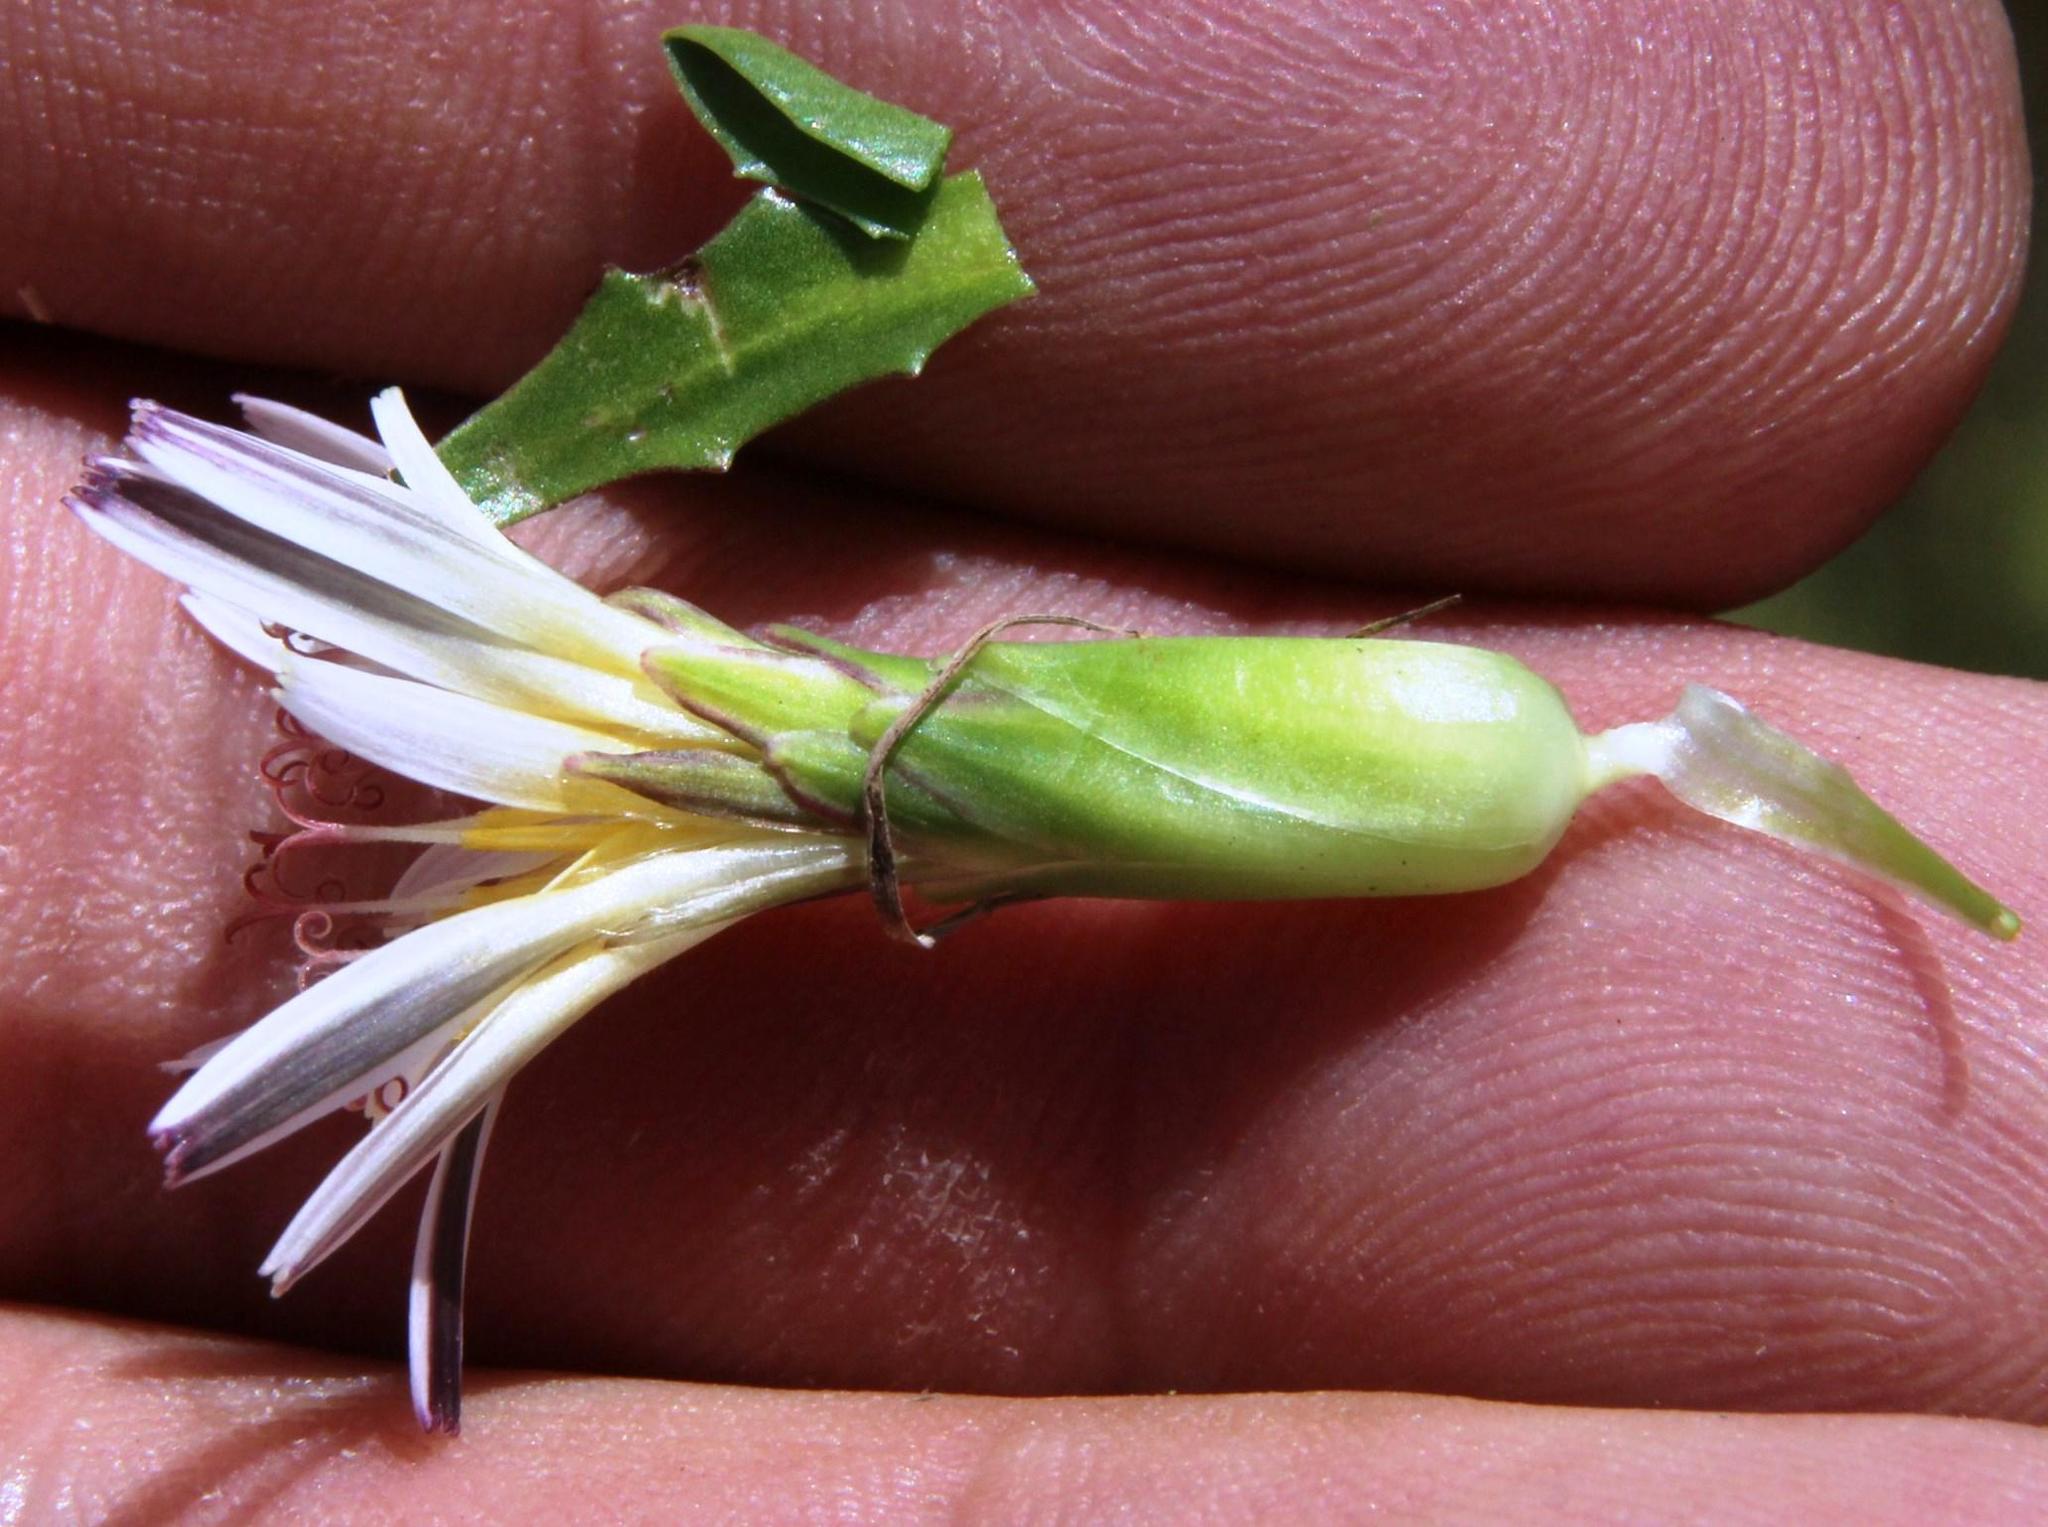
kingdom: Plantae
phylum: Tracheophyta
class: Magnoliopsida
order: Asterales
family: Asteraceae
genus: Hypochaeris
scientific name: Hypochaeris taraxacoides
